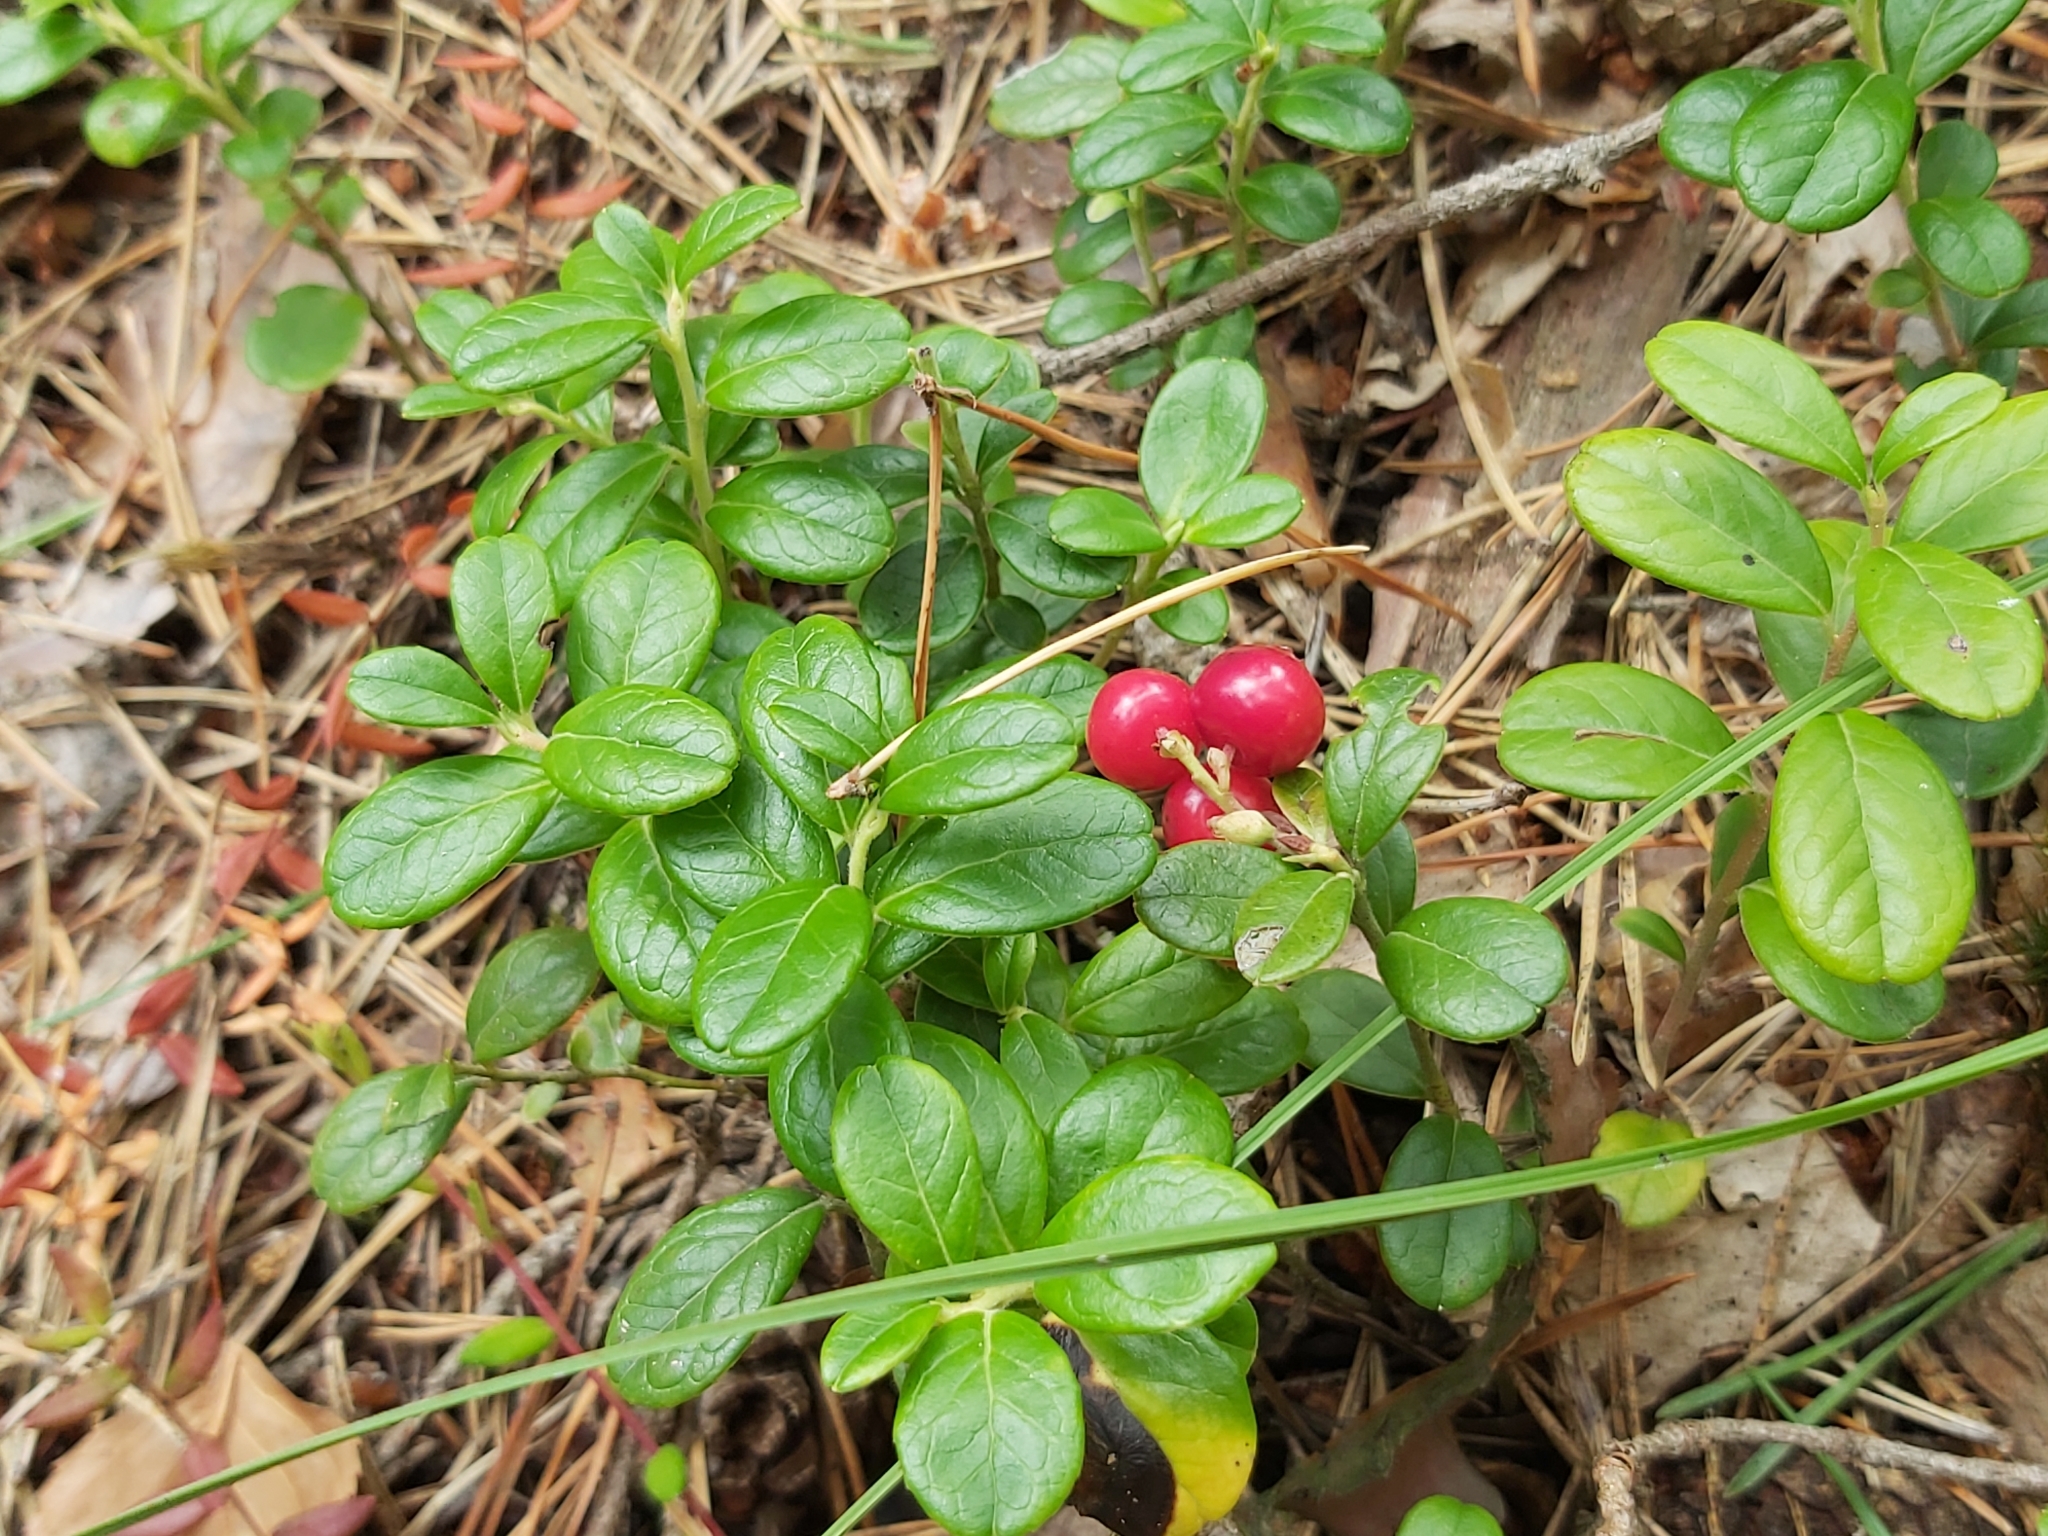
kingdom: Plantae
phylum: Tracheophyta
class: Magnoliopsida
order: Ericales
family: Ericaceae
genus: Vaccinium
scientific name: Vaccinium vitis-idaea
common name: Cowberry
